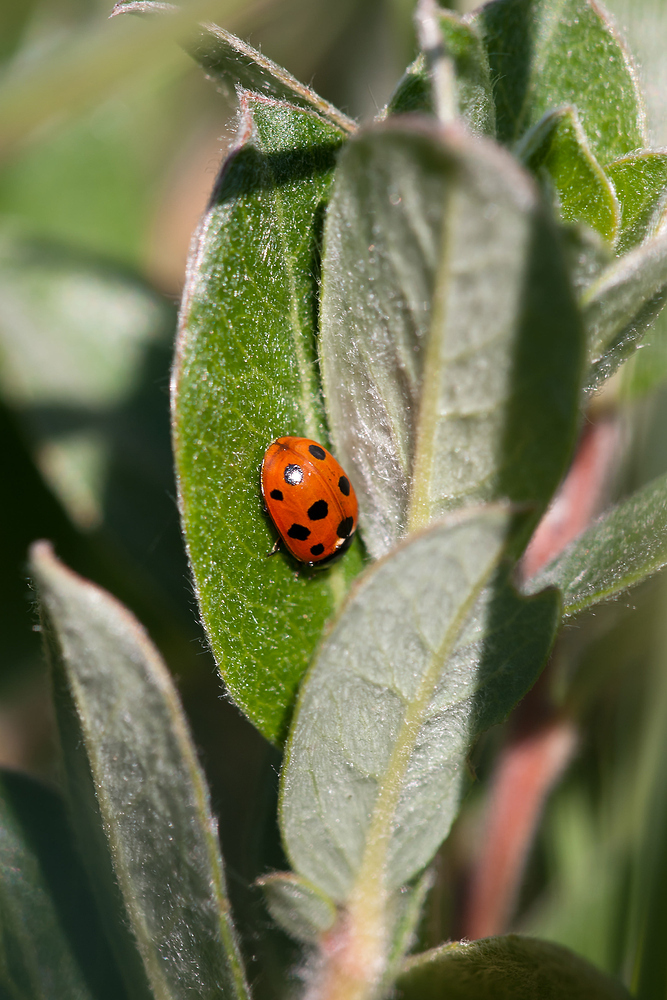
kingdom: Animalia
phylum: Arthropoda
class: Insecta
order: Coleoptera
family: Coccinellidae
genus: Coccinella
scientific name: Coccinella undecimpunctata
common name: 11-spot ladybird
